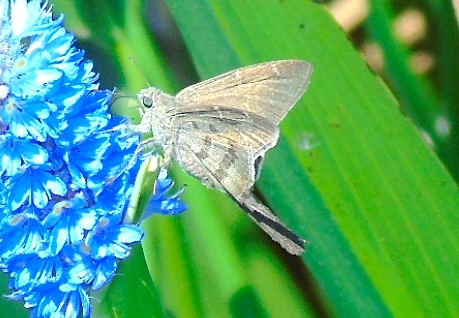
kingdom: Animalia
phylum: Arthropoda
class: Insecta
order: Lepidoptera
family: Hesperiidae
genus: Urbanus
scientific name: Urbanus procne
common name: Brown longtail
